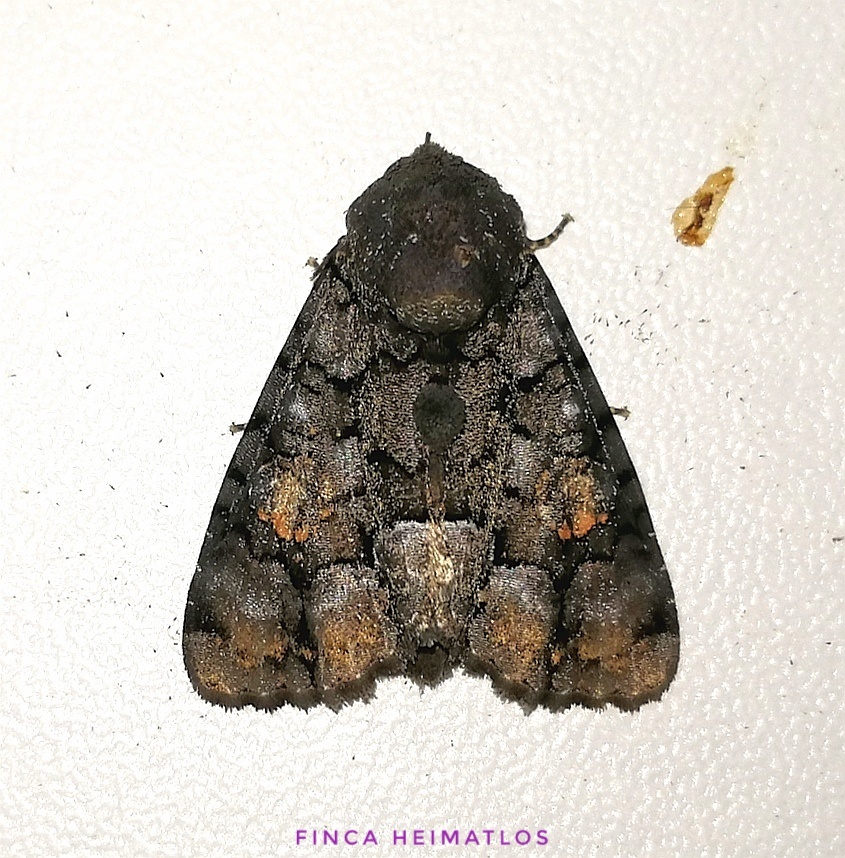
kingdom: Animalia
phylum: Arthropoda
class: Insecta
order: Lepidoptera
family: Noctuidae
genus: Cropia
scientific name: Cropia hadenoides
